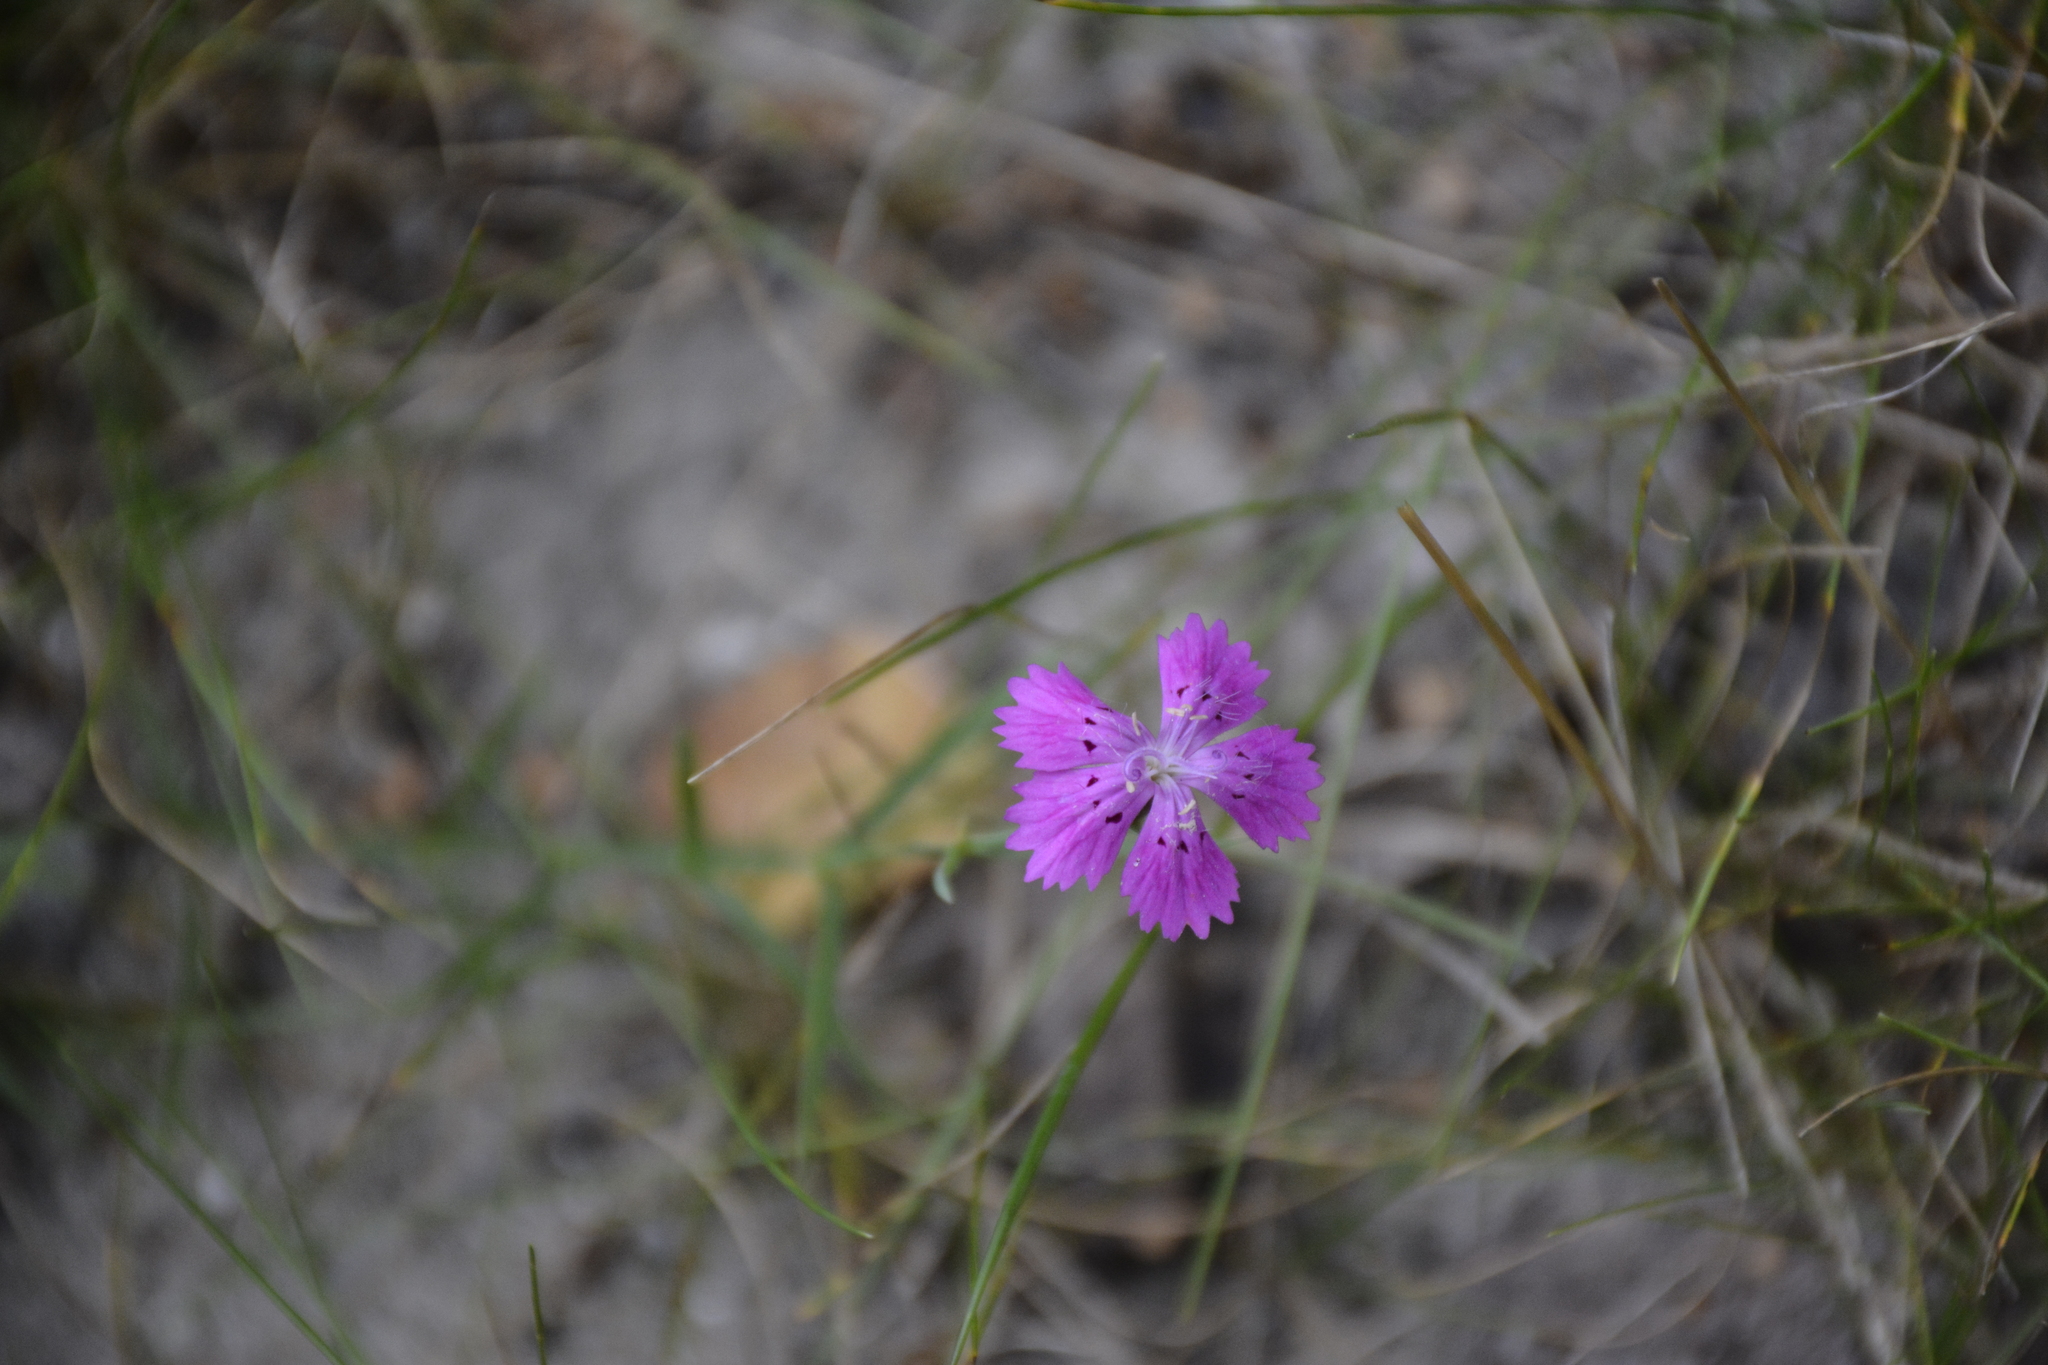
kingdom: Plantae
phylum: Tracheophyta
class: Magnoliopsida
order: Caryophyllales
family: Caryophyllaceae
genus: Dianthus
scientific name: Dianthus chinensis
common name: Rainbow pink
